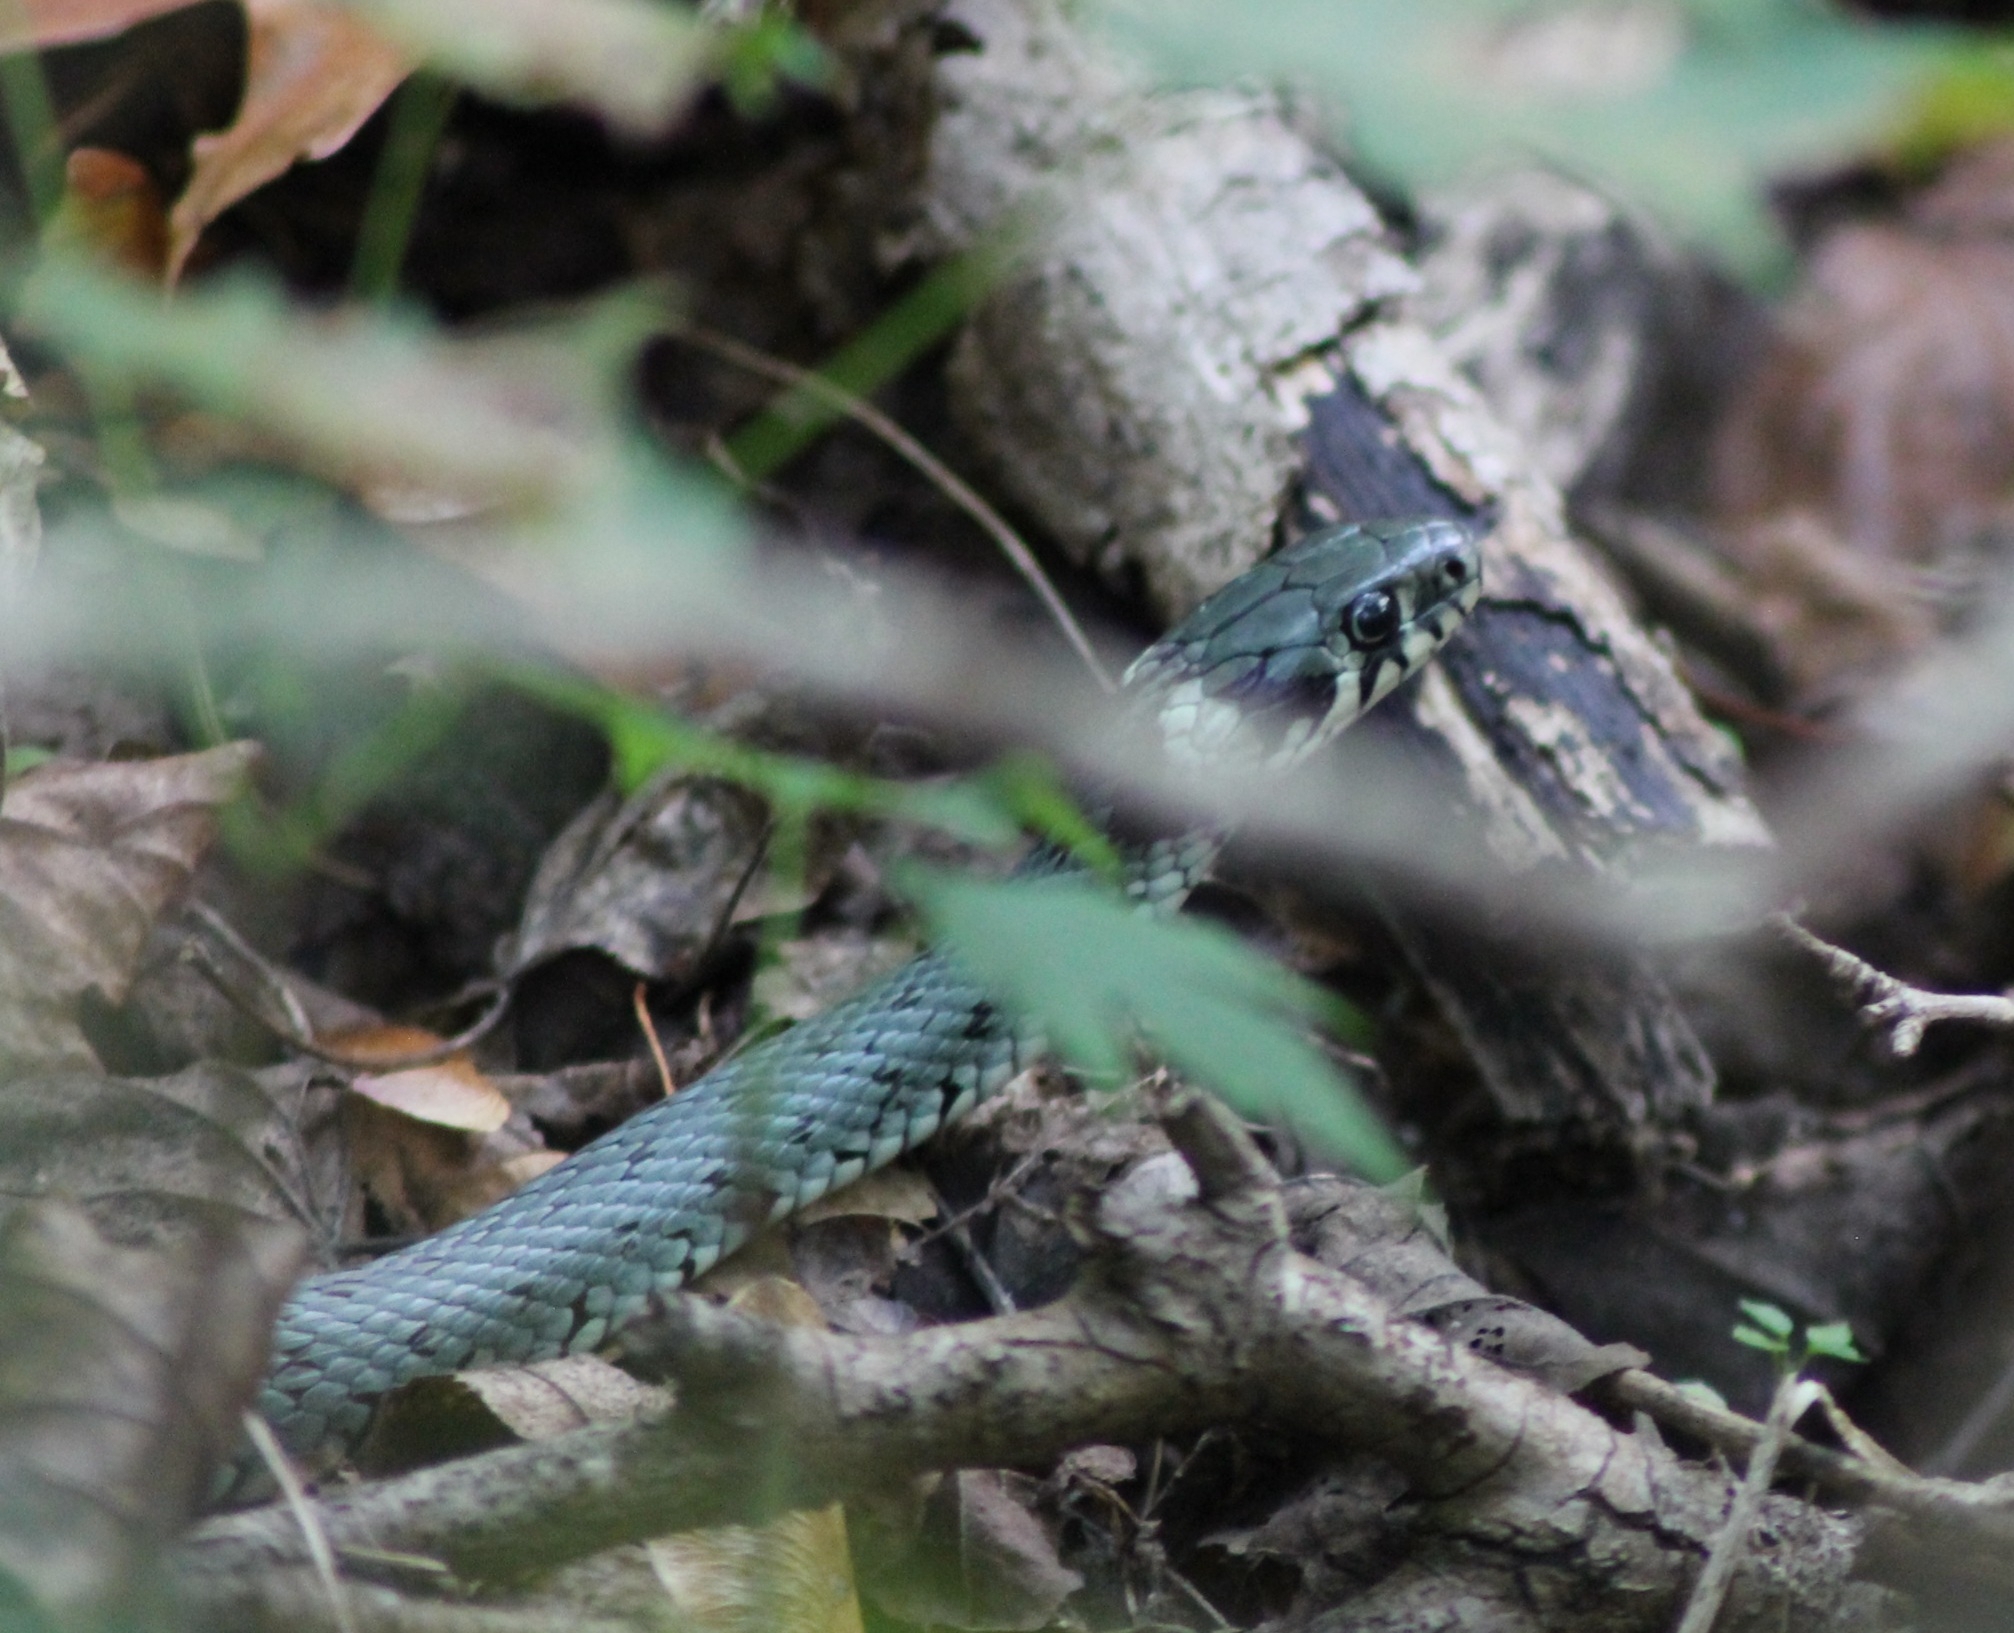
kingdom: Animalia
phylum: Chordata
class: Squamata
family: Colubridae
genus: Natrix
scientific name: Natrix natrix
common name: Grass snake
